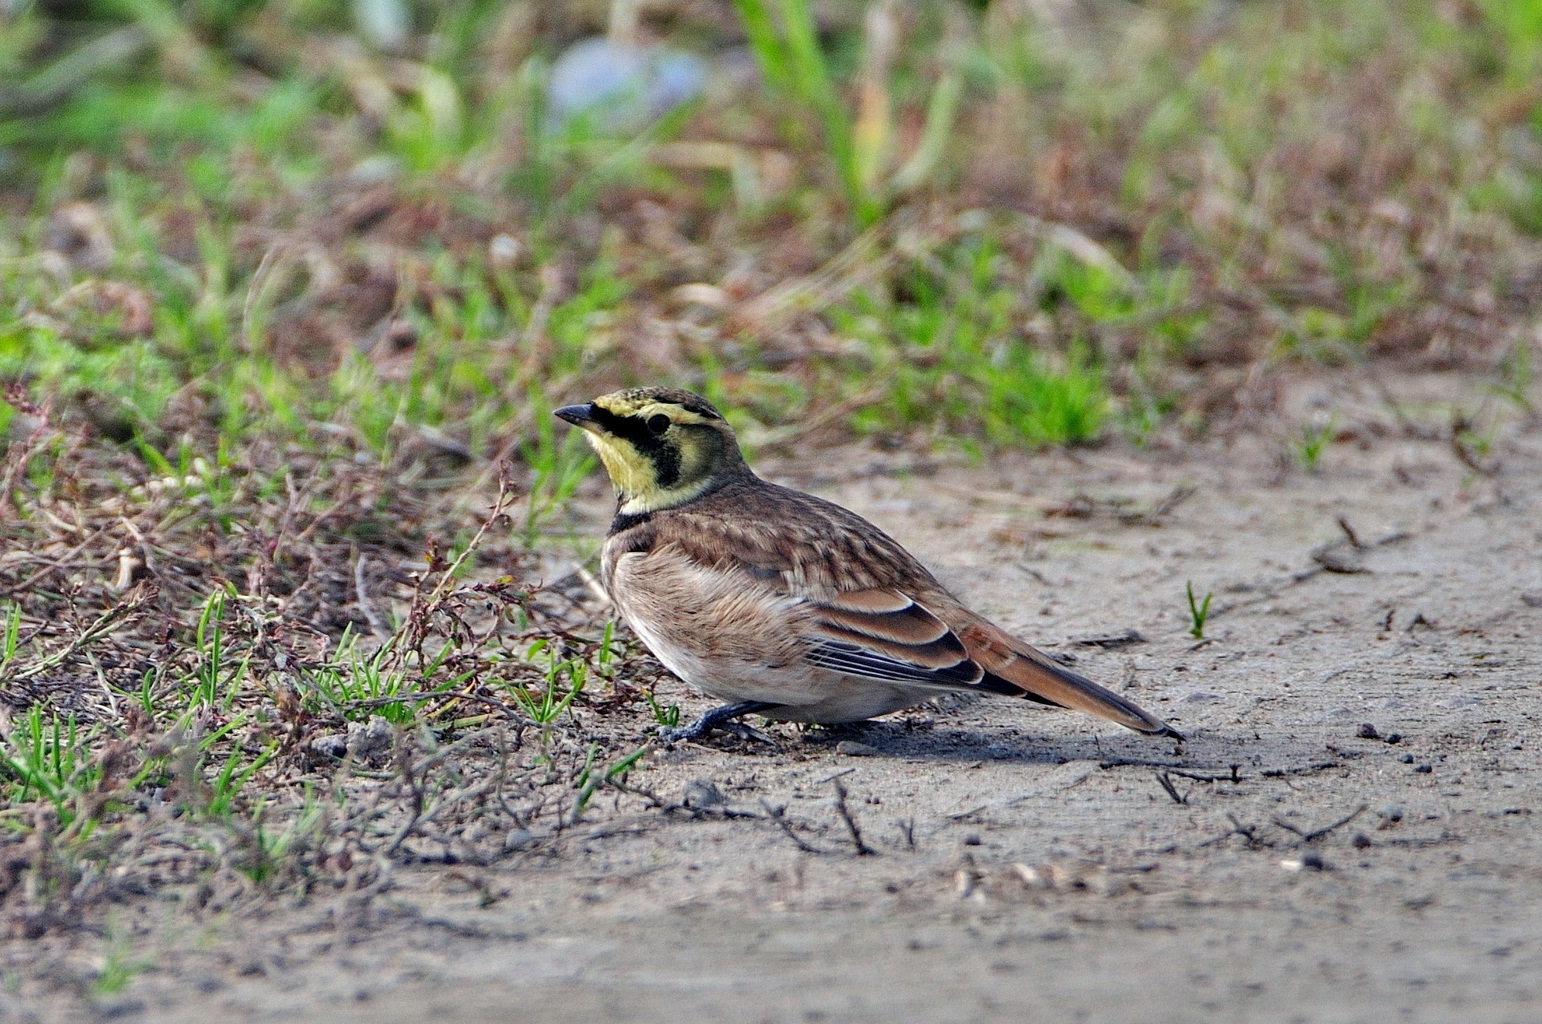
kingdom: Animalia
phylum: Chordata
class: Aves
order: Passeriformes
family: Alaudidae
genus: Eremophila
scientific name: Eremophila alpestris
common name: Horned lark
